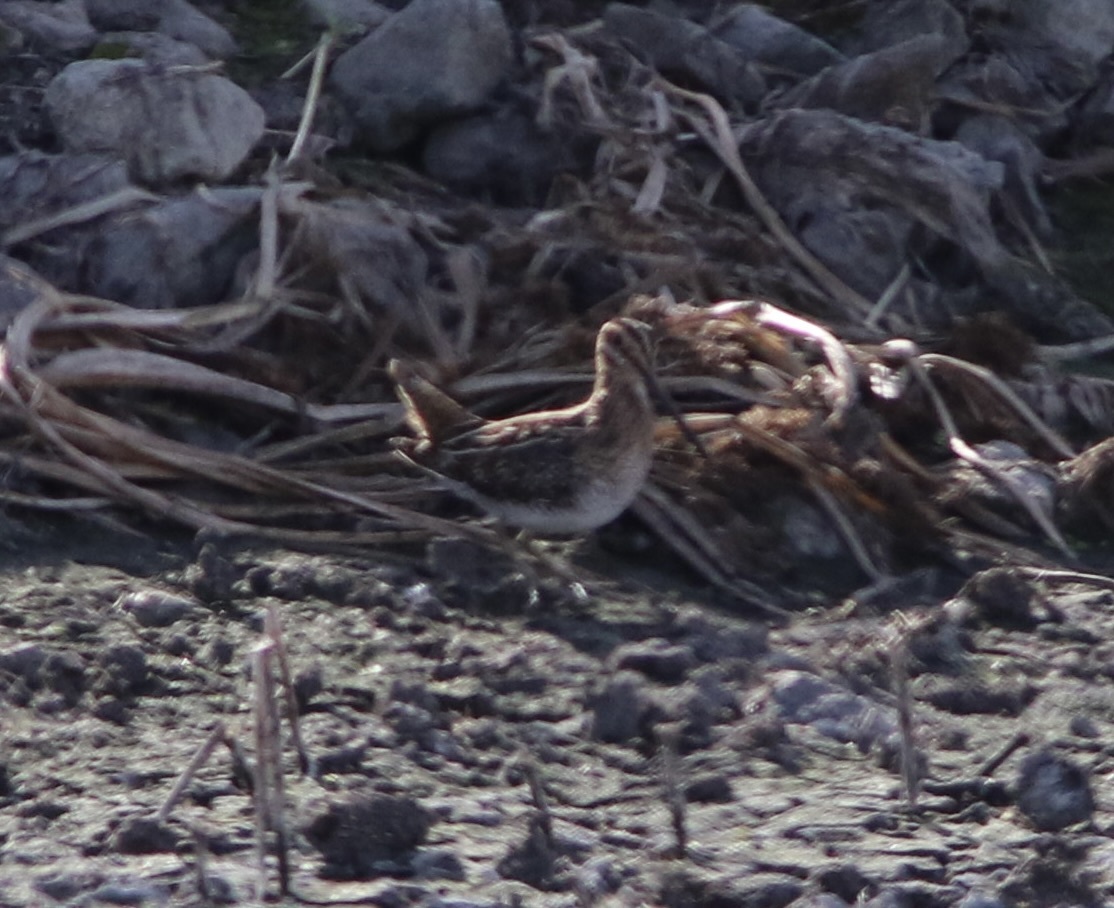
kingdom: Animalia
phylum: Chordata
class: Aves
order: Charadriiformes
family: Scolopacidae
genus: Gallinago
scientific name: Gallinago delicata
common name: Wilson's snipe
